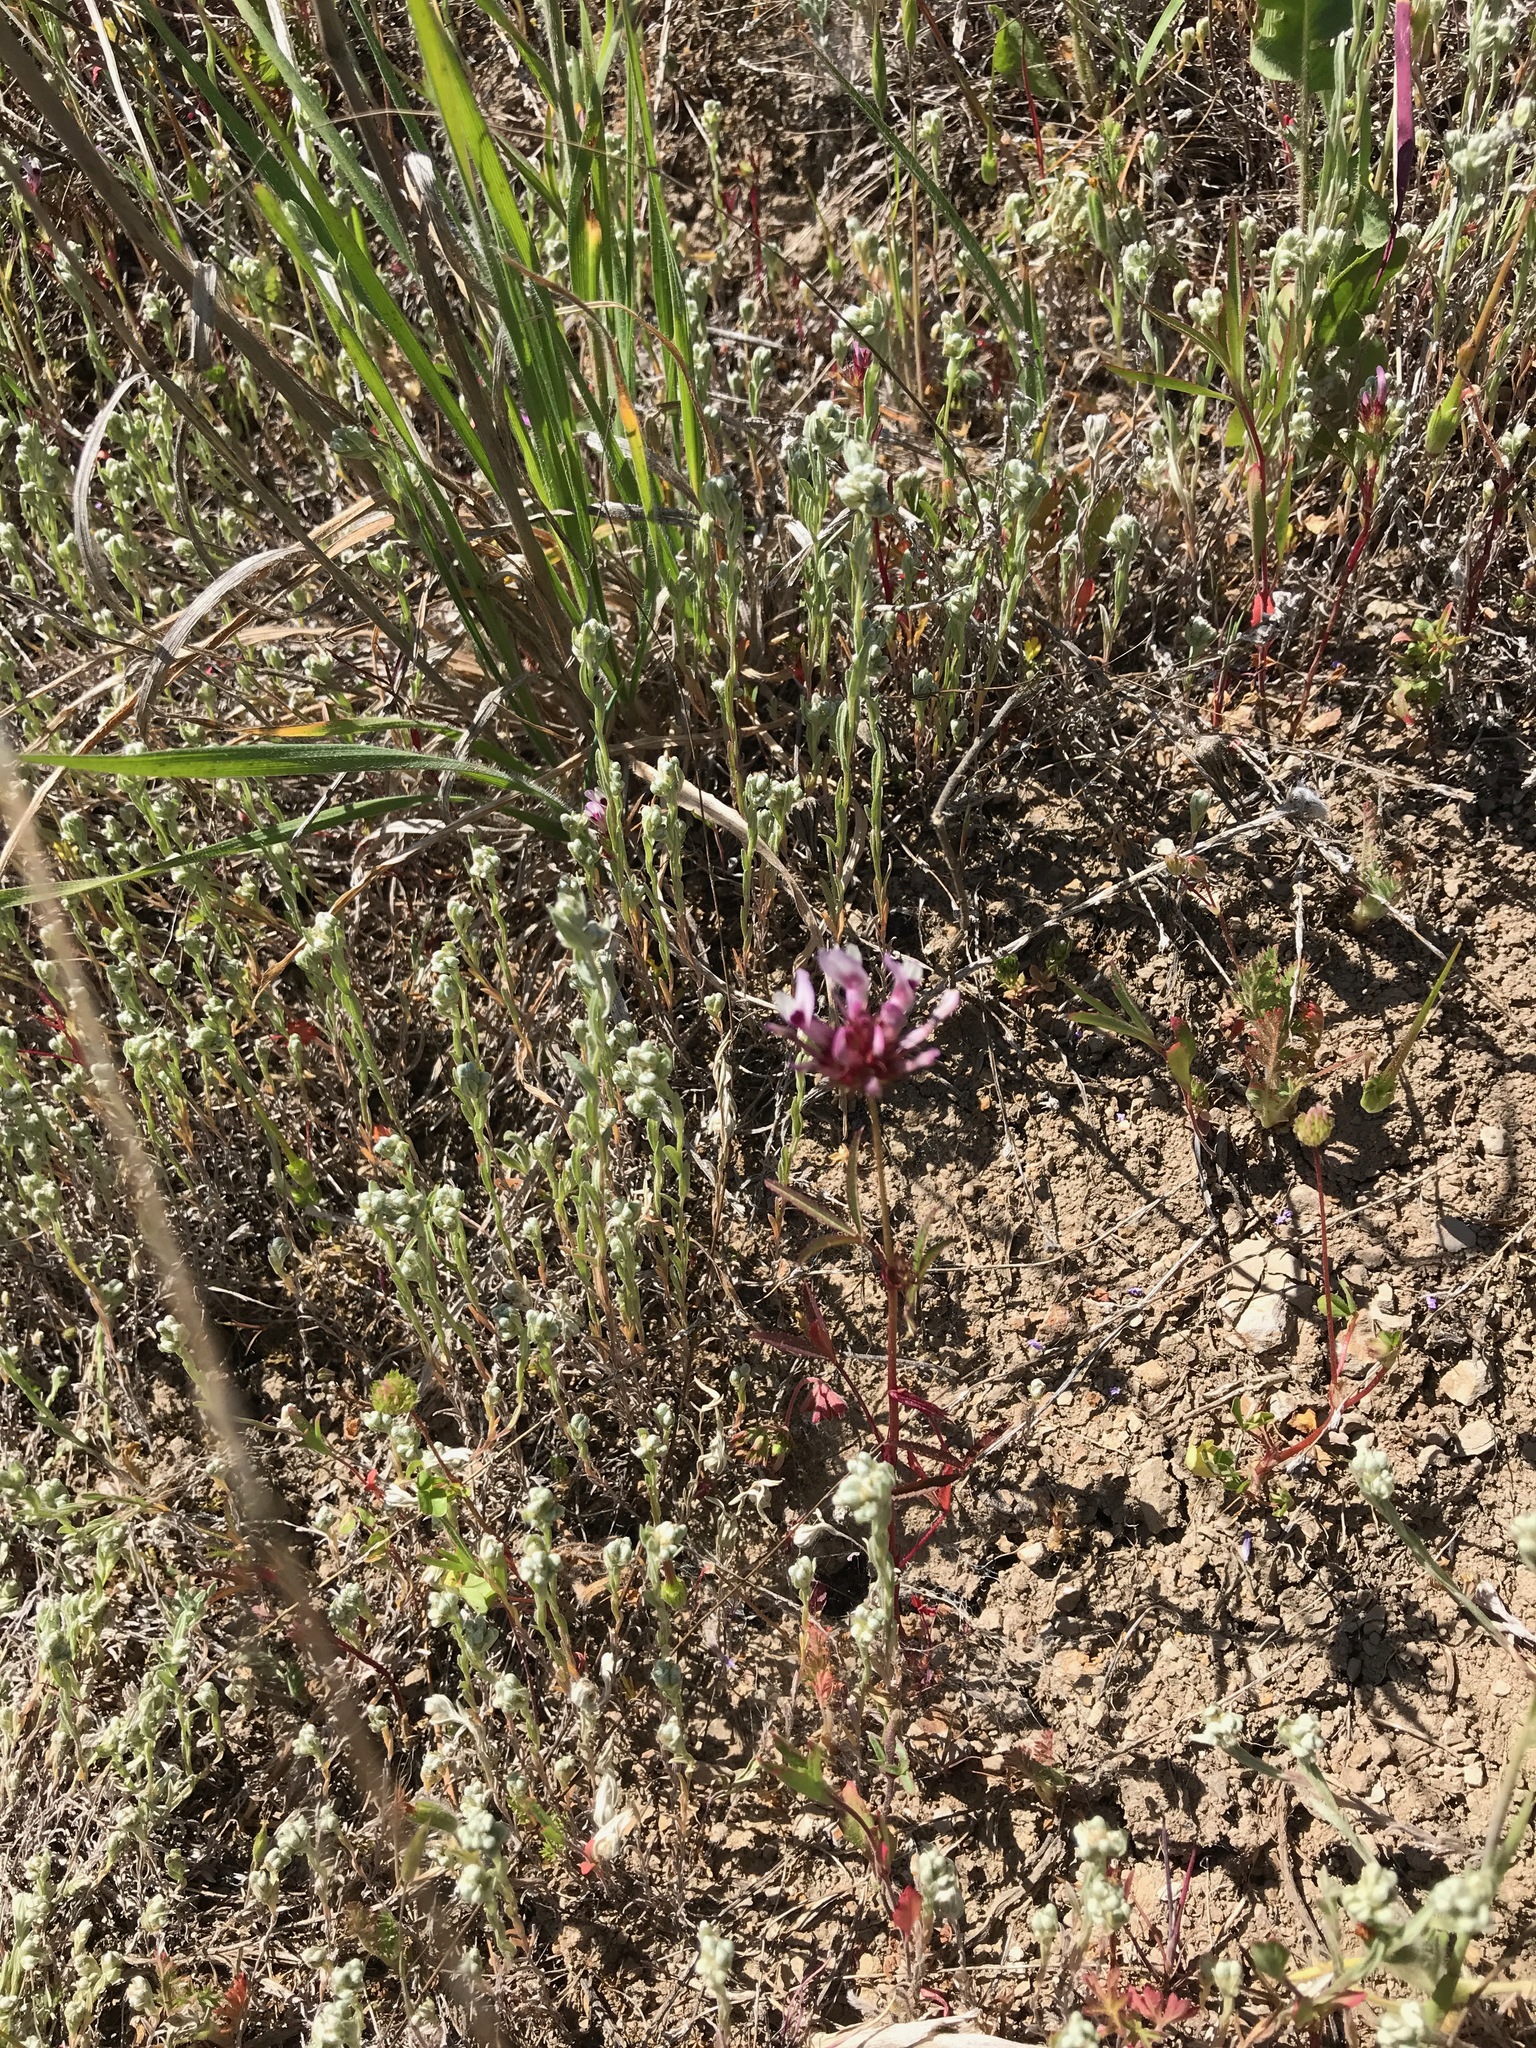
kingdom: Plantae
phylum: Tracheophyta
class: Magnoliopsida
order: Fabales
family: Fabaceae
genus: Trifolium
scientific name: Trifolium willdenovii
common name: Tomcat clover
